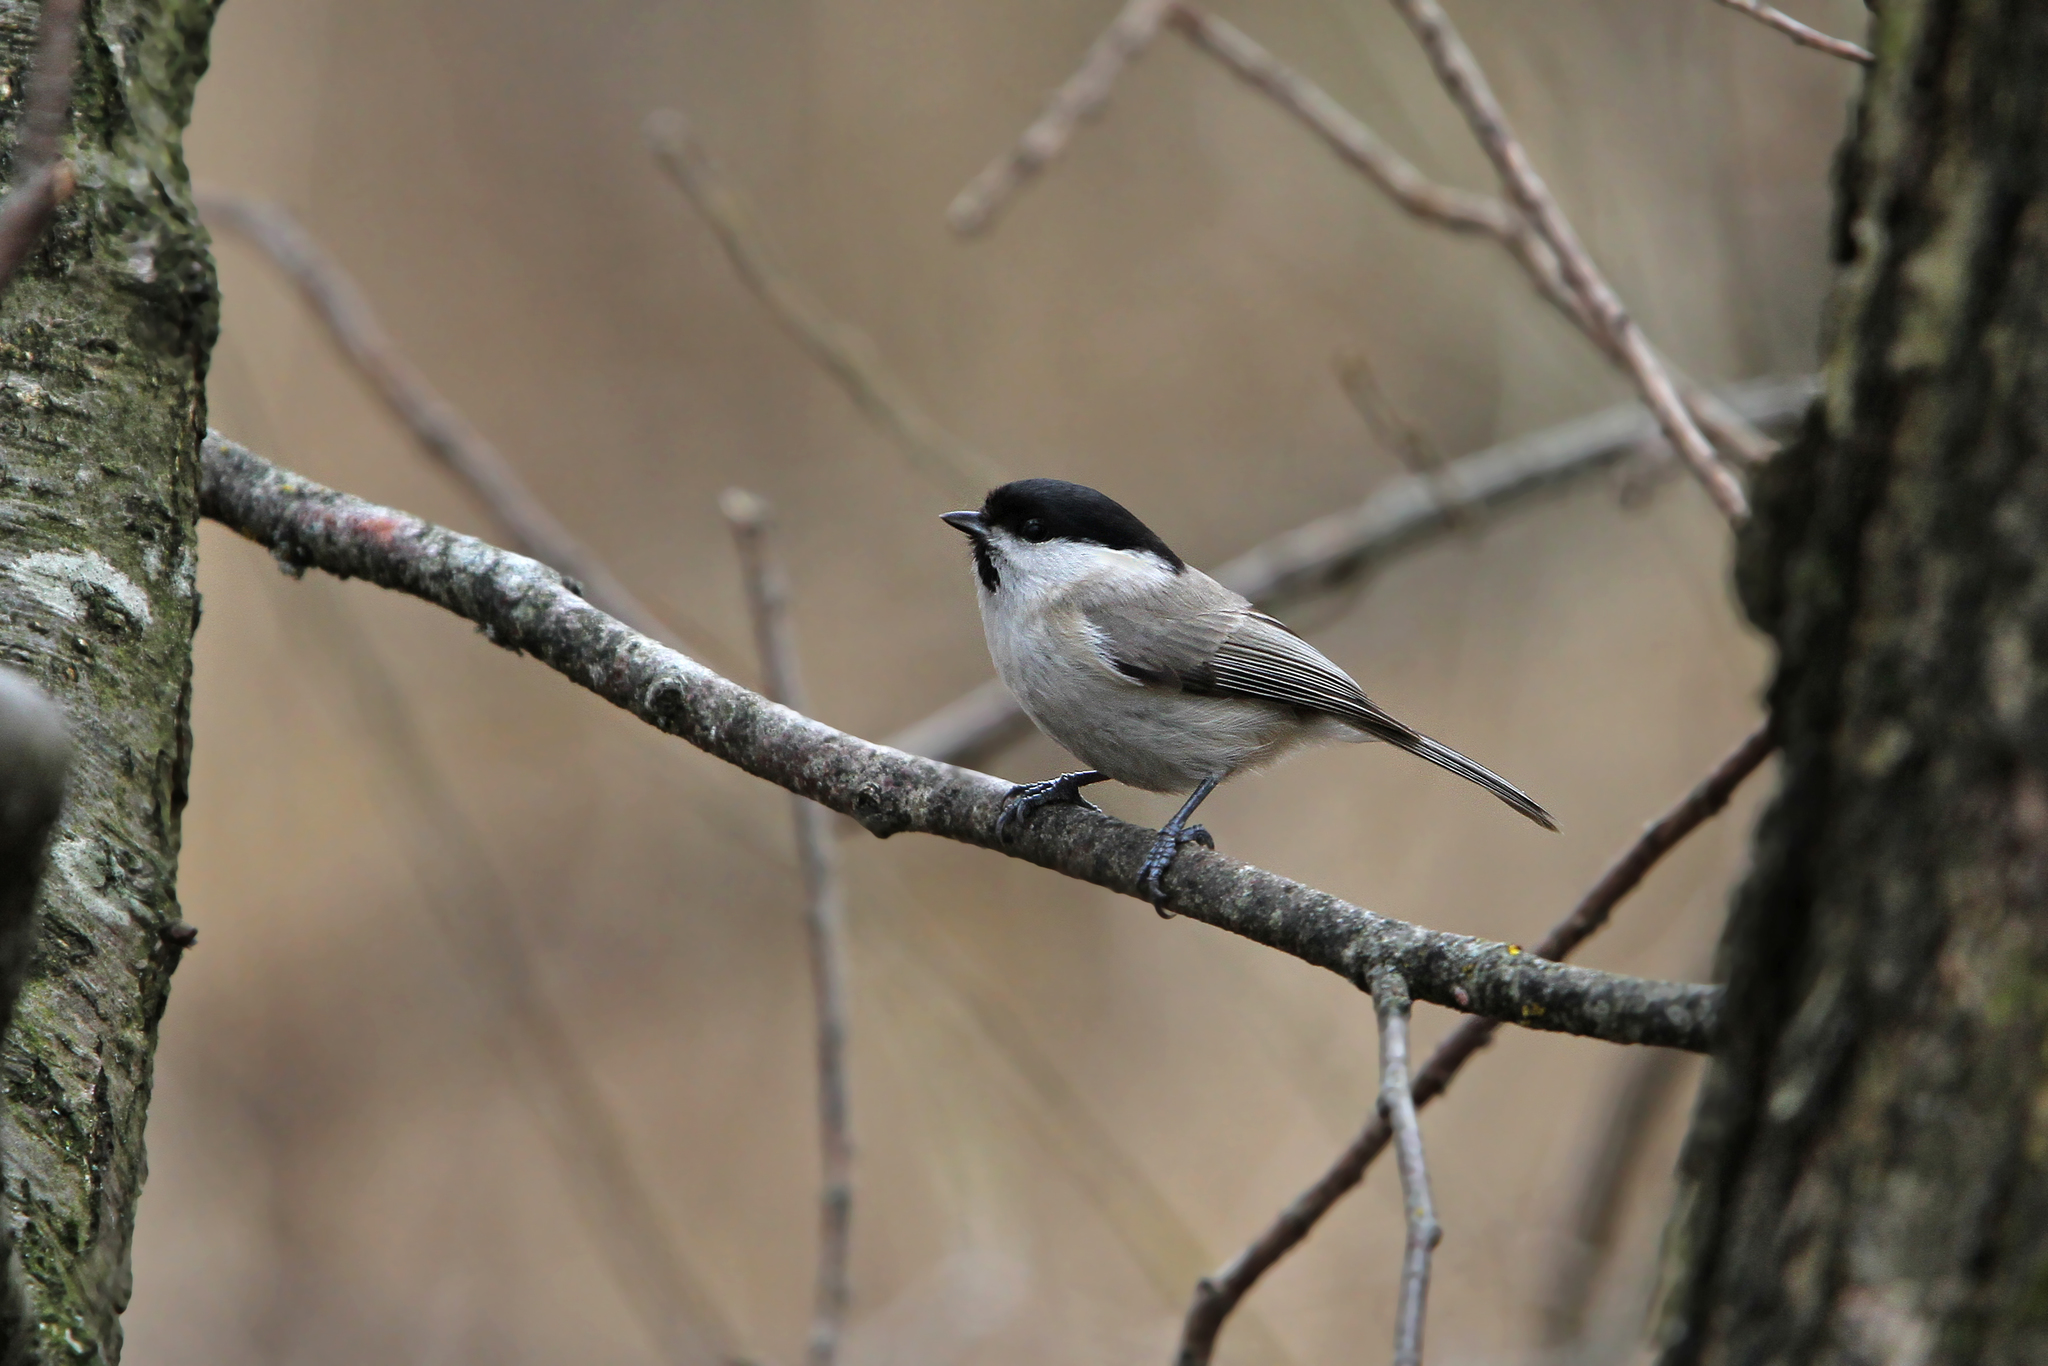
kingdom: Animalia
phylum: Chordata
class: Aves
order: Passeriformes
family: Paridae
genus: Poecile
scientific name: Poecile palustris
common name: Marsh tit
